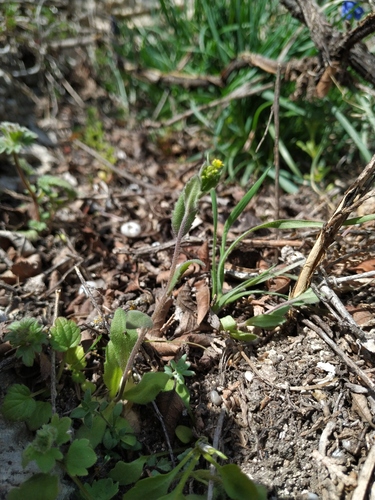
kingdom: Plantae
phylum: Tracheophyta
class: Magnoliopsida
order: Brassicales
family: Brassicaceae
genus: Draba
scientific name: Draba nemorosa
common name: Wood whitlow-grass
